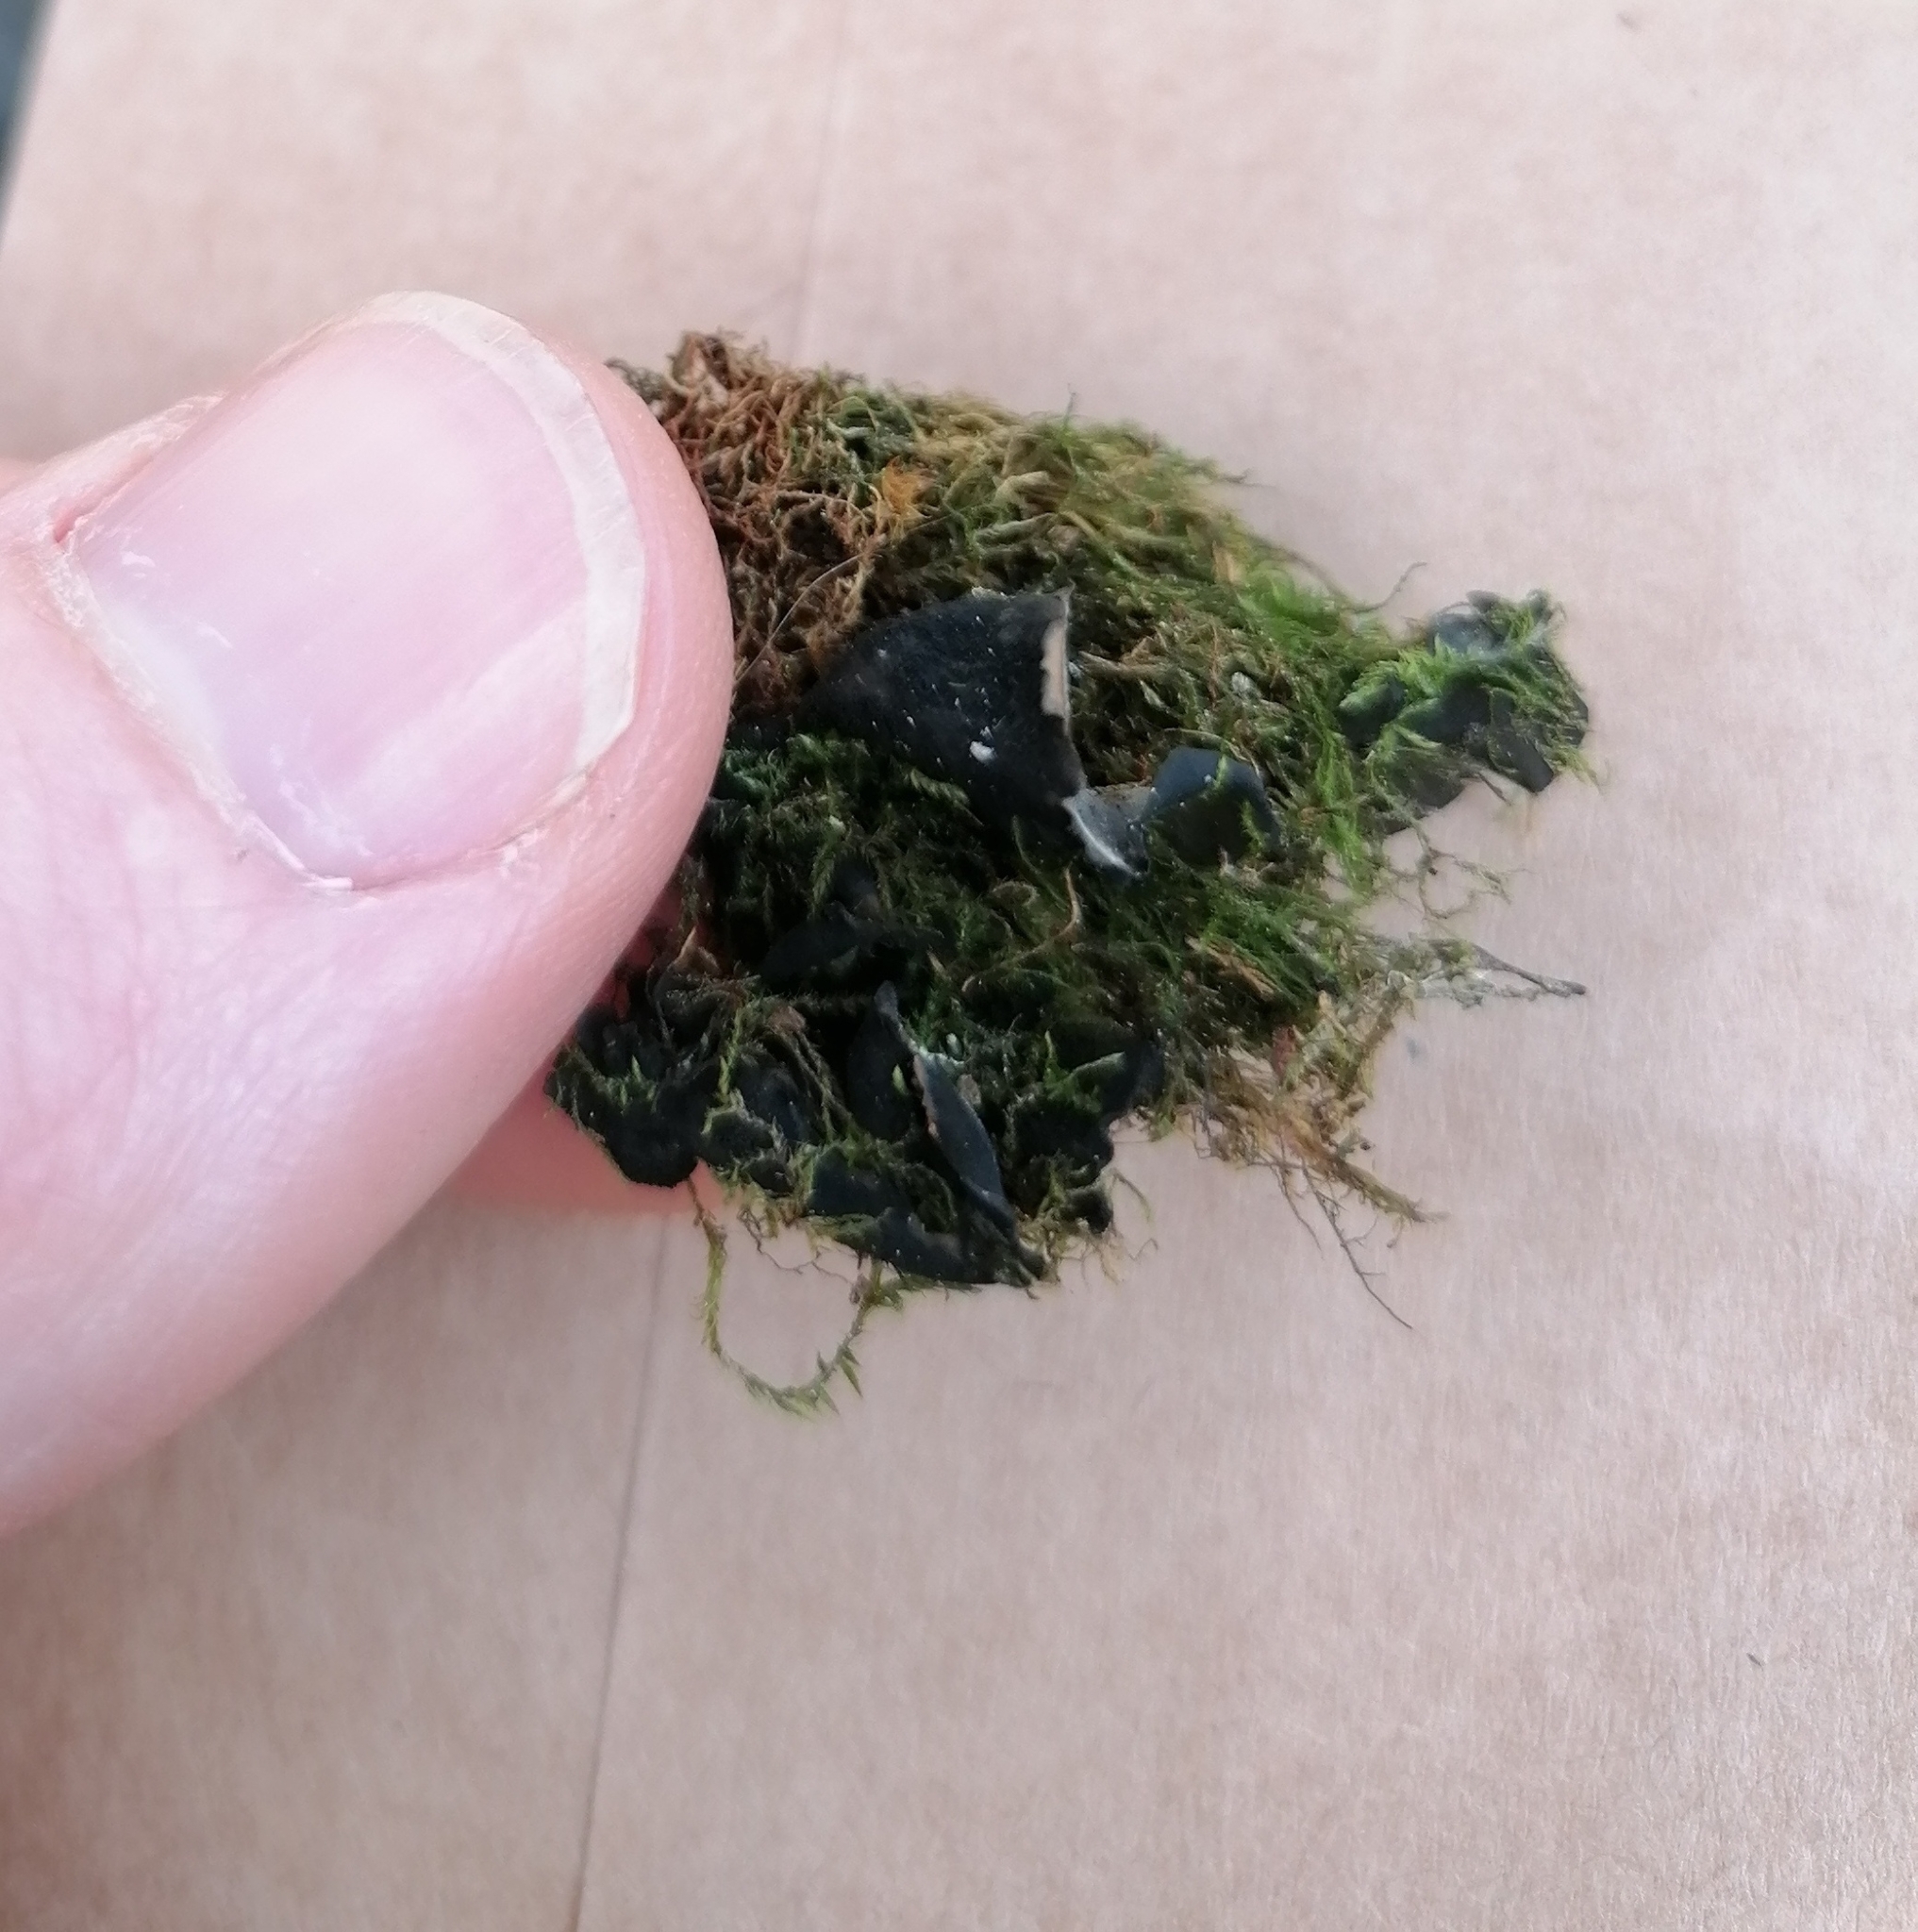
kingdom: Fungi
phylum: Ascomycota
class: Lecanoromycetes
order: Peltigerales
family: Collemataceae
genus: Leptogium
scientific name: Leptogium saturninum
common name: Bearded jellyskin lichen
